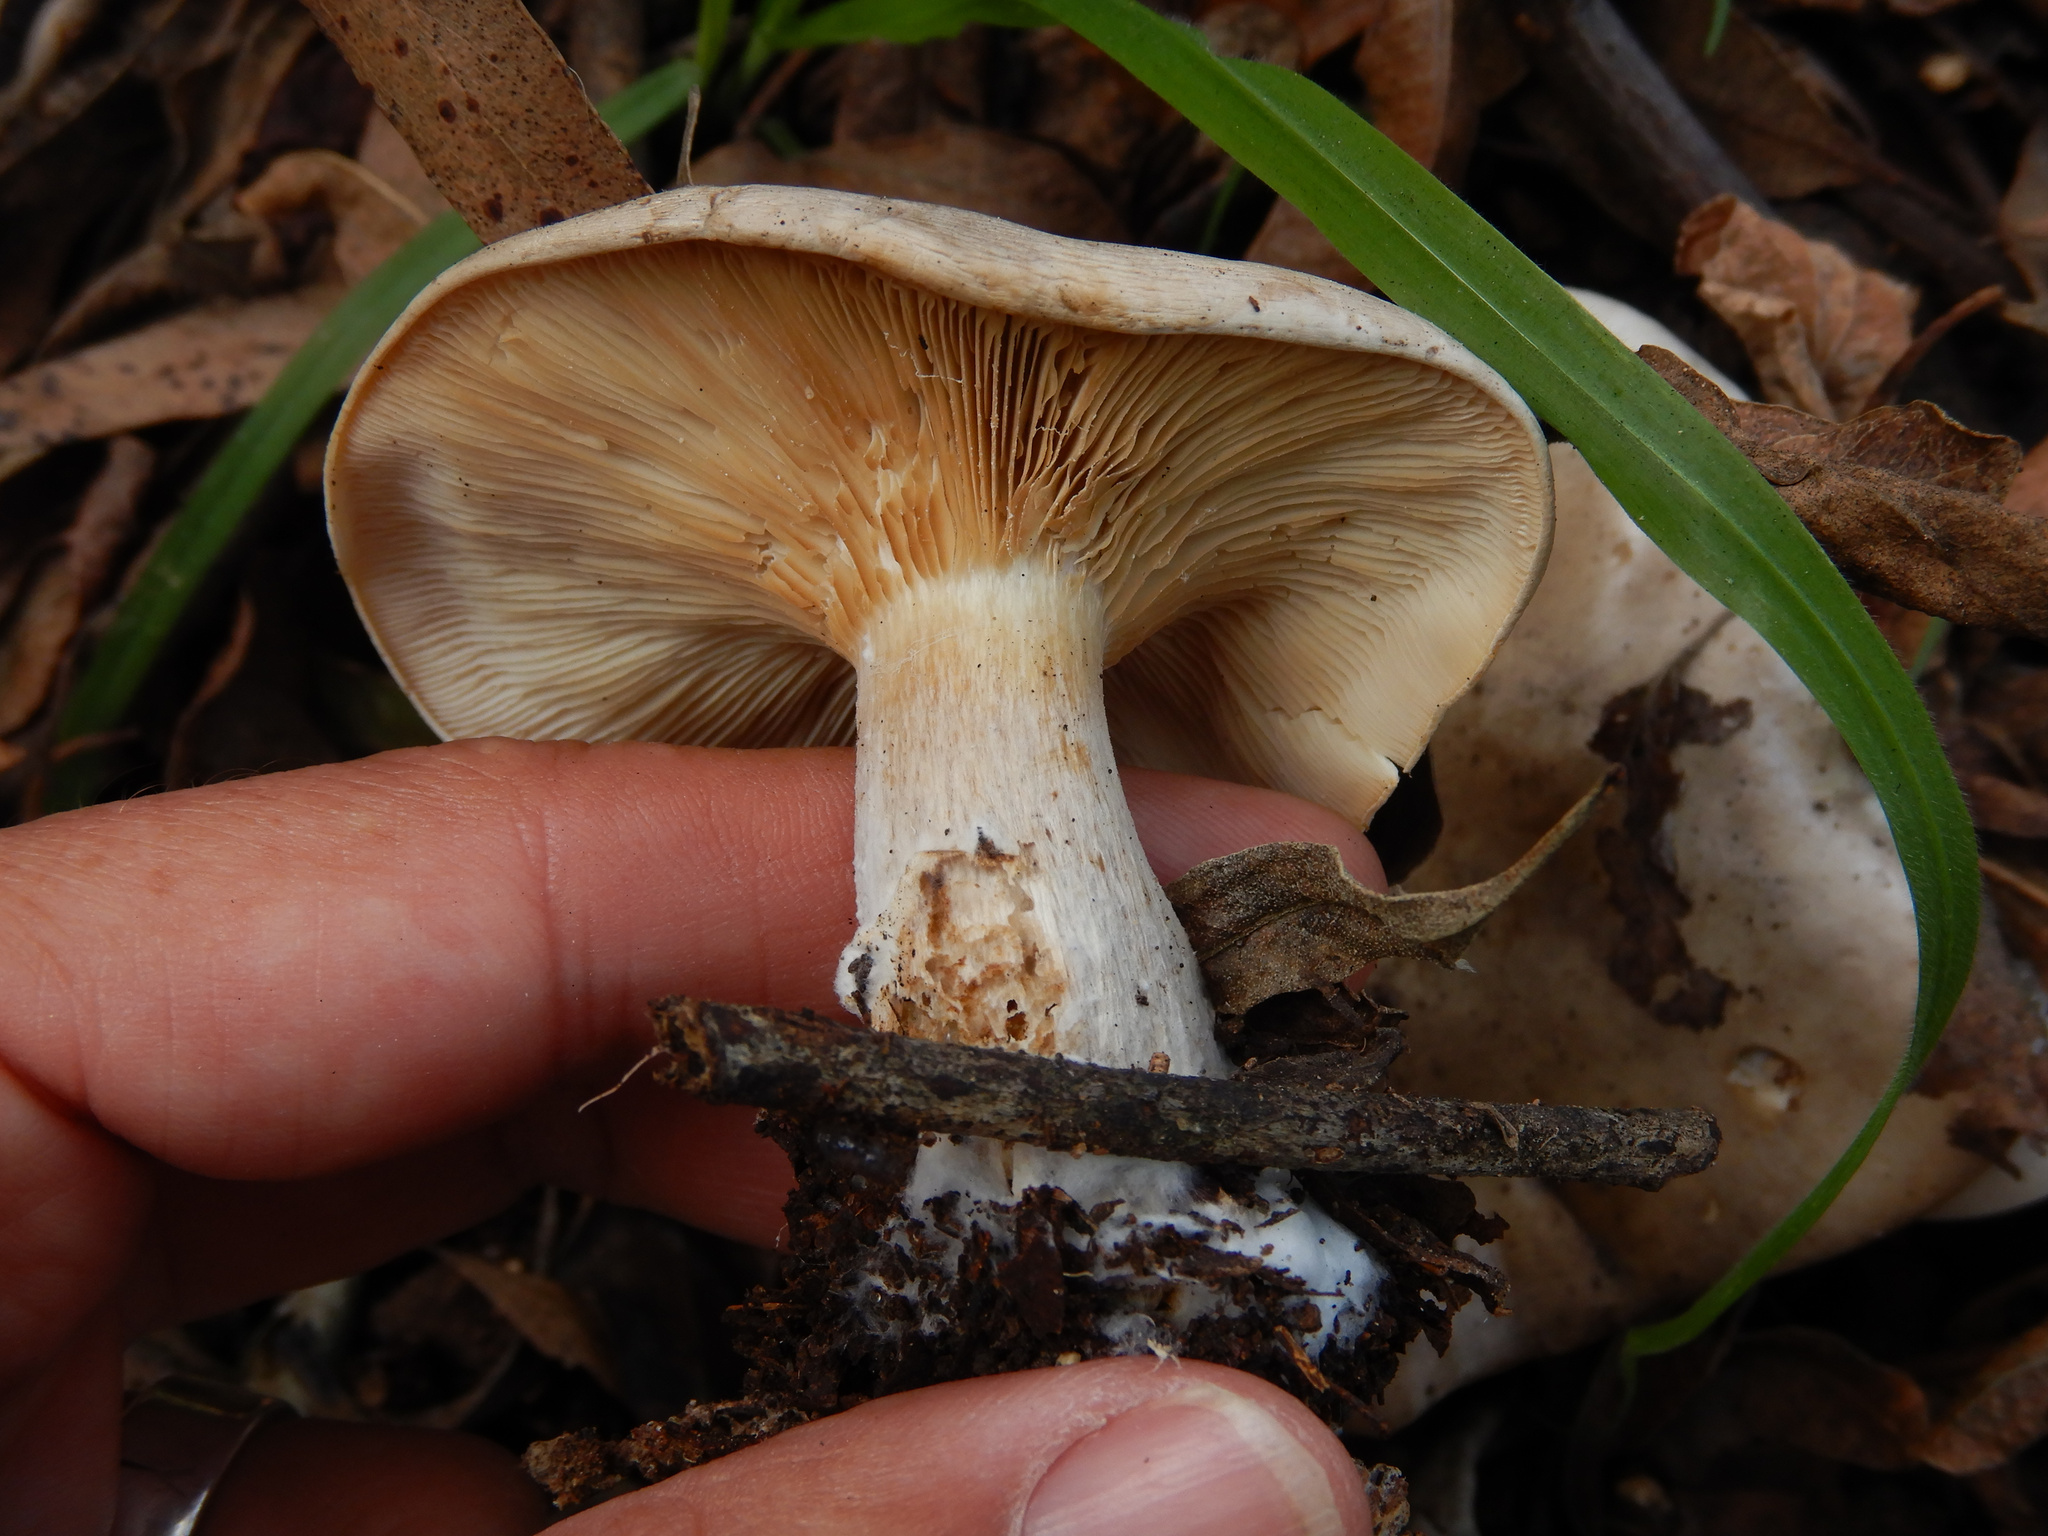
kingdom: Fungi
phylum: Basidiomycota
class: Agaricomycetes
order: Agaricales
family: Tricholomataceae
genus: Clitocybe
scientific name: Clitocybe nebularis
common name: Clouded agaric
